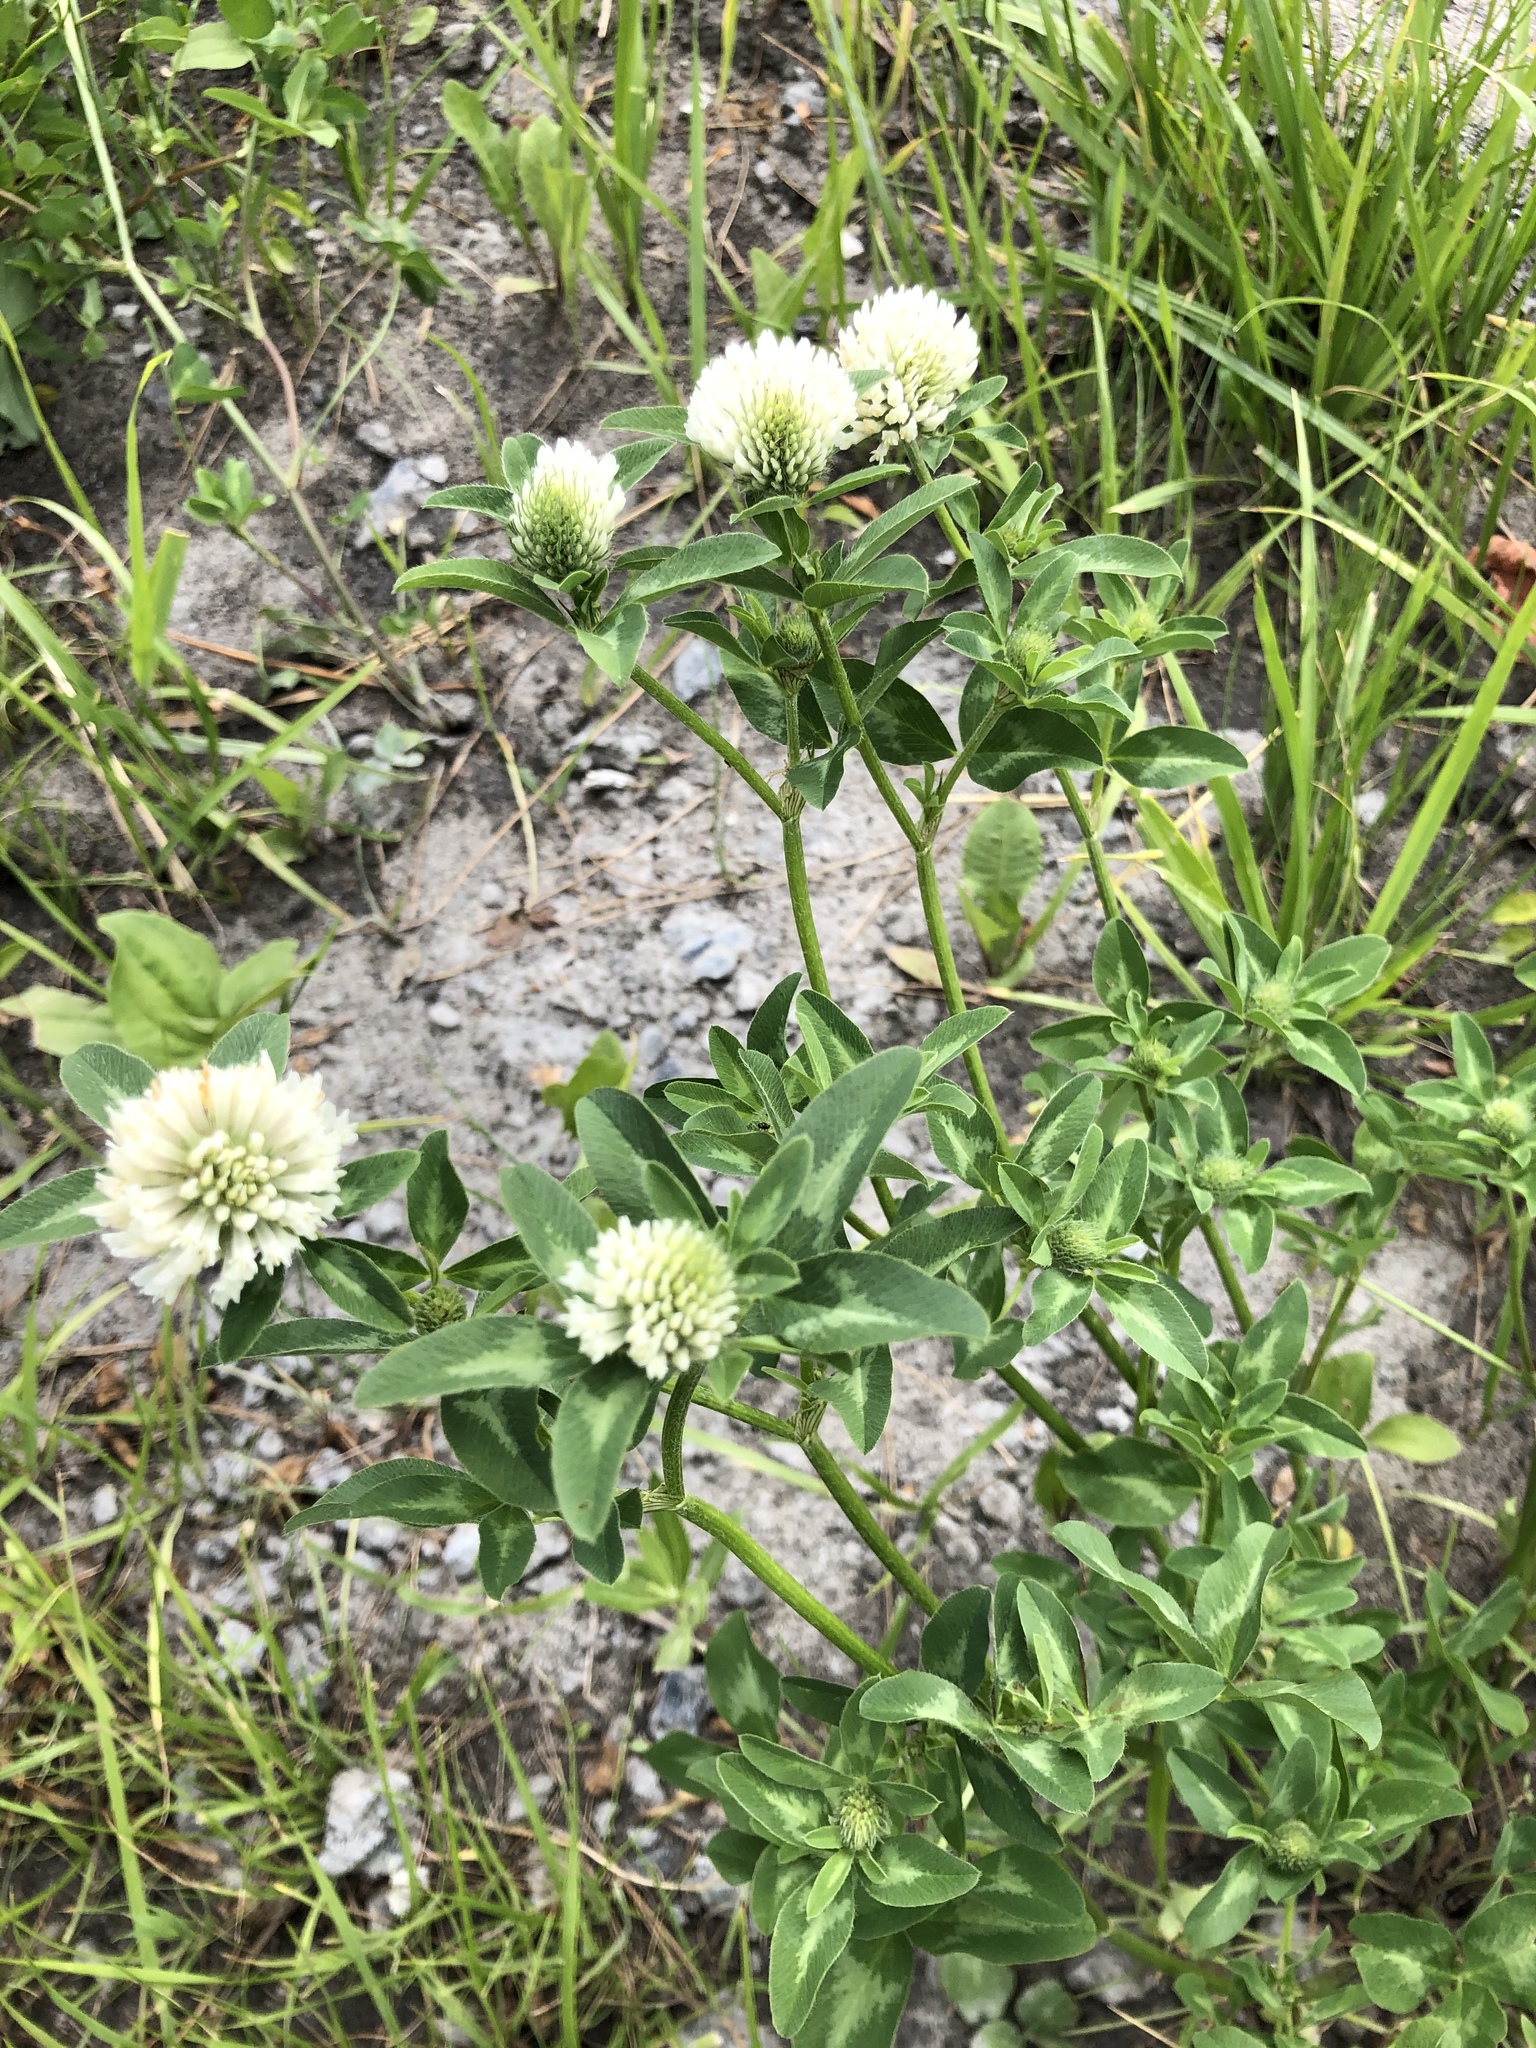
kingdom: Plantae
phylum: Tracheophyta
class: Magnoliopsida
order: Fabales
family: Fabaceae
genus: Trifolium
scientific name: Trifolium montanum
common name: Mountain clover
